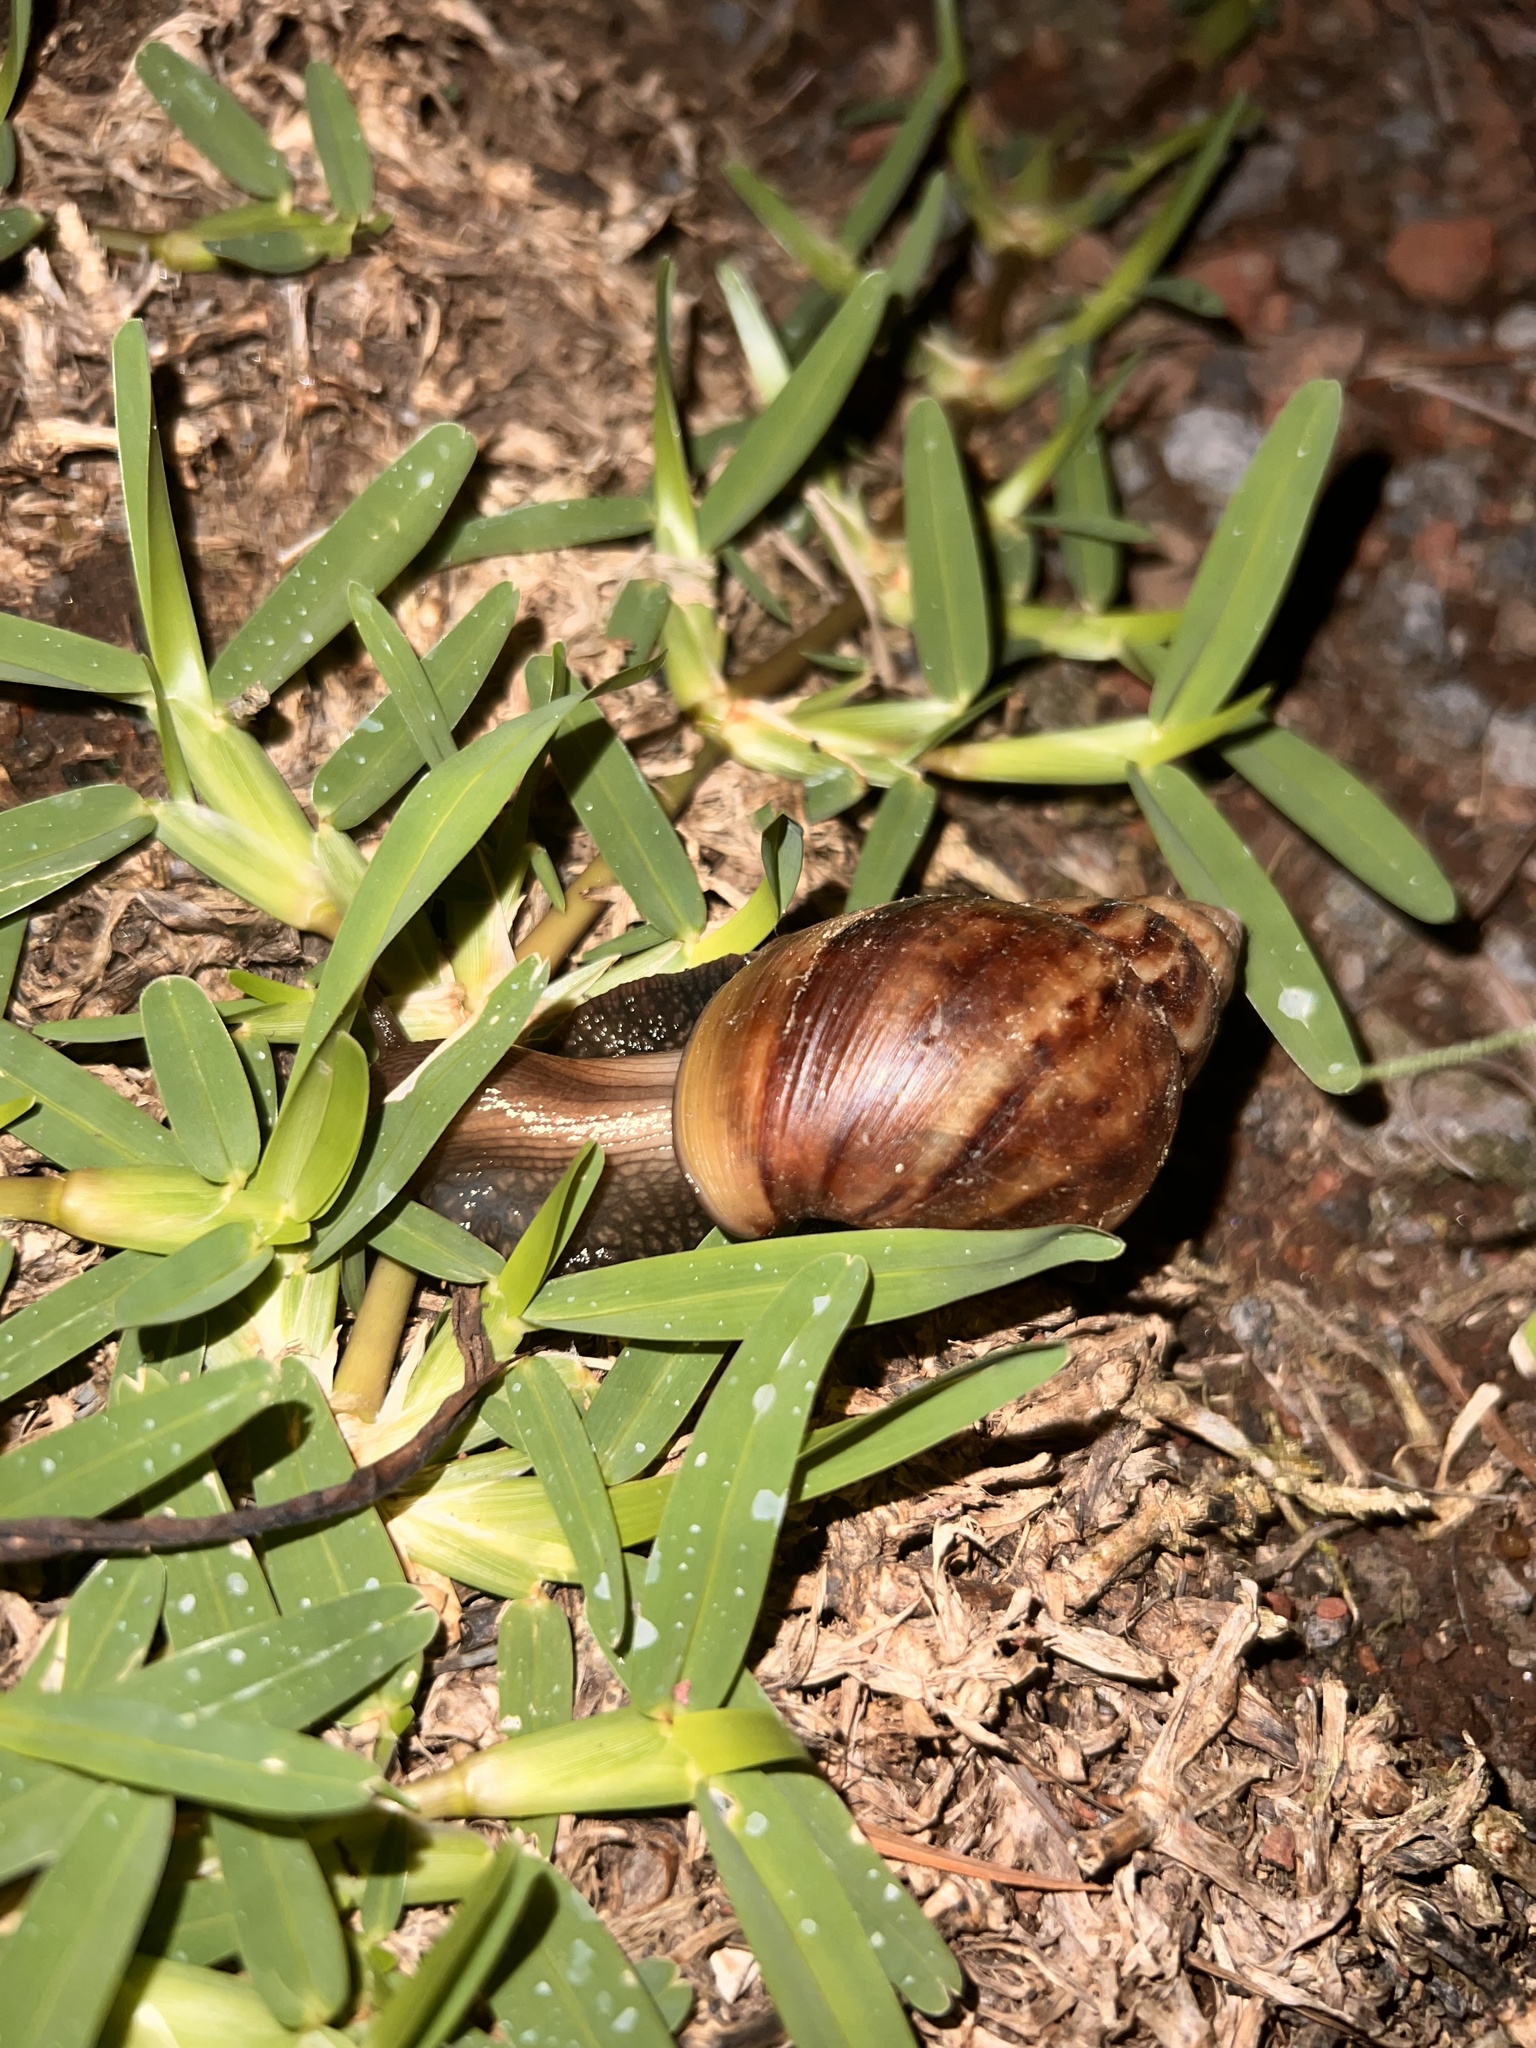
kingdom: Animalia
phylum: Mollusca
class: Gastropoda
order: Stylommatophora
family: Achatinidae
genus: Lissachatina
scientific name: Lissachatina fulica
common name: Giant african snail
